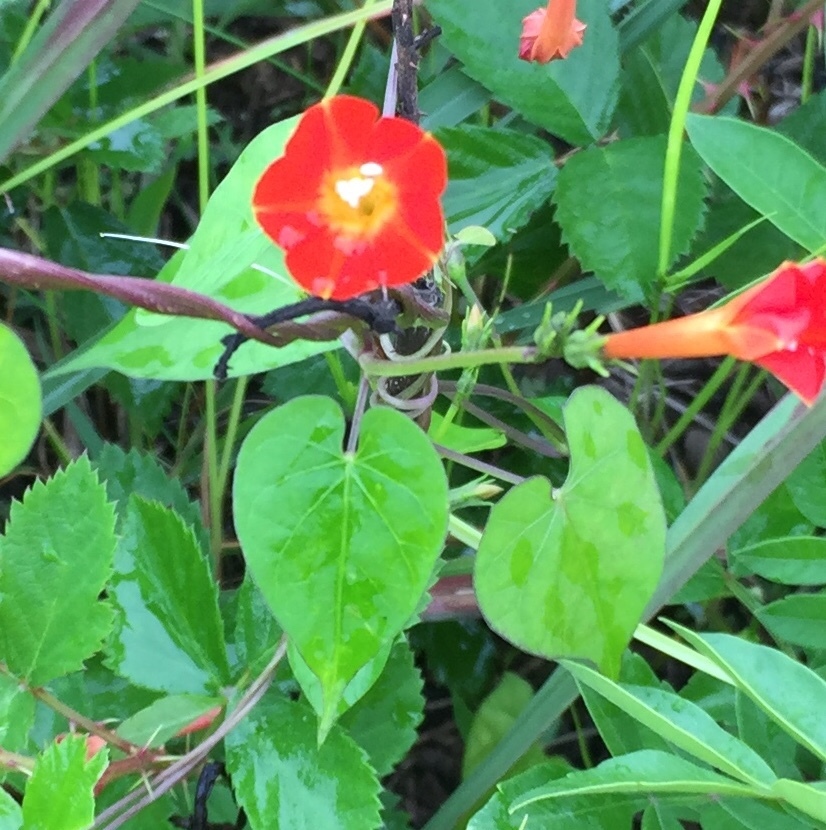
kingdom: Plantae
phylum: Tracheophyta
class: Magnoliopsida
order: Solanales
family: Convolvulaceae
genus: Ipomoea
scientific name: Ipomoea coccinea
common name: Red morning-glory
